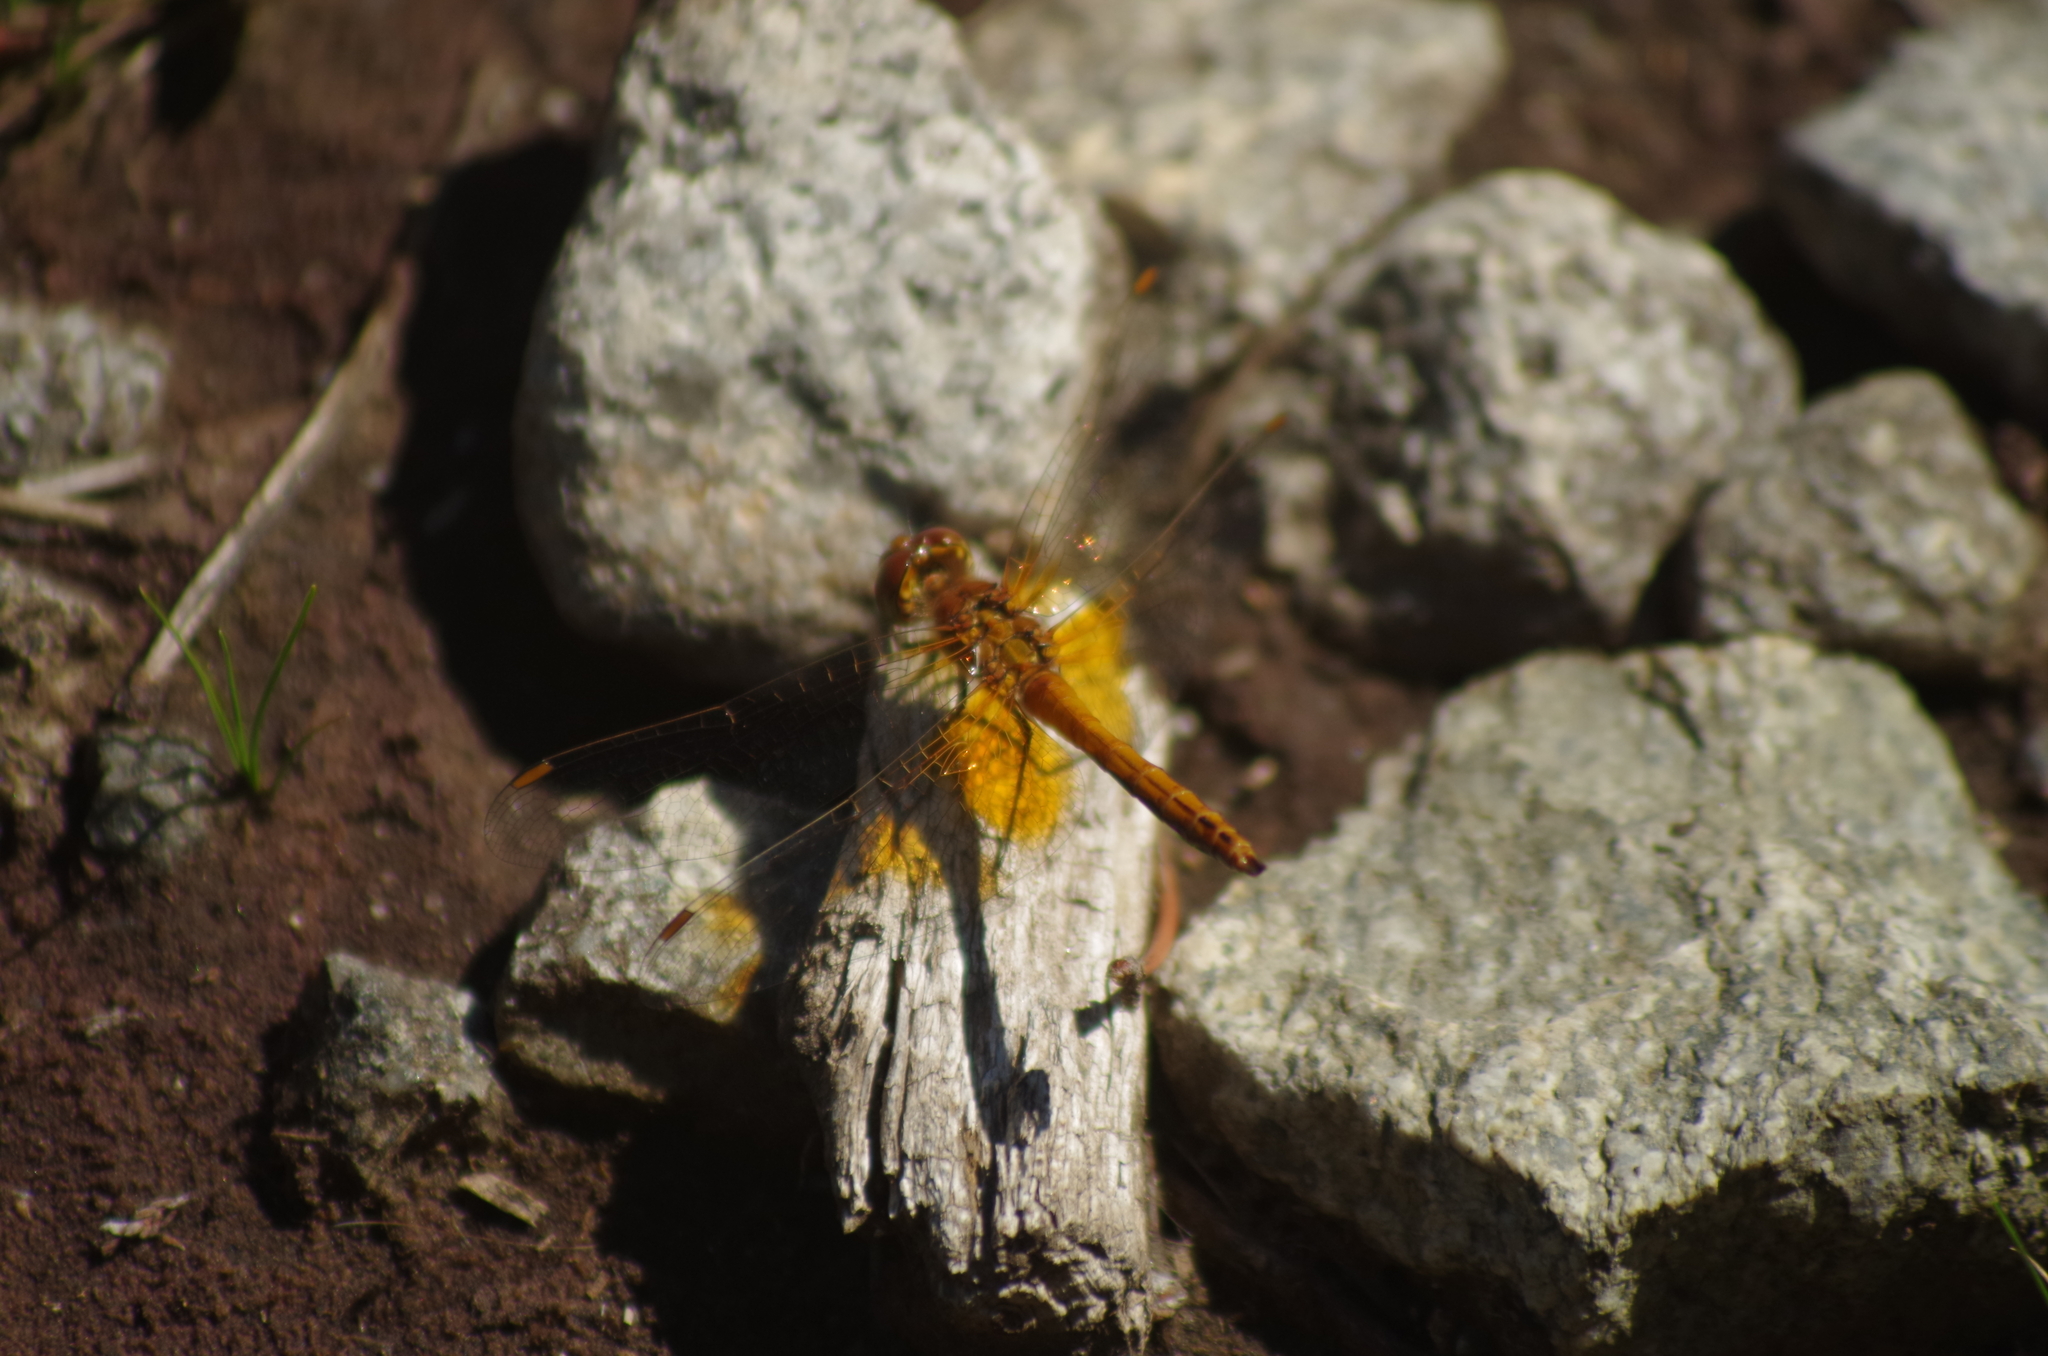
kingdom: Animalia
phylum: Arthropoda
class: Insecta
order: Odonata
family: Libellulidae
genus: Sympetrum
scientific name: Sympetrum flaveolum
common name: Yellow-winged darter
